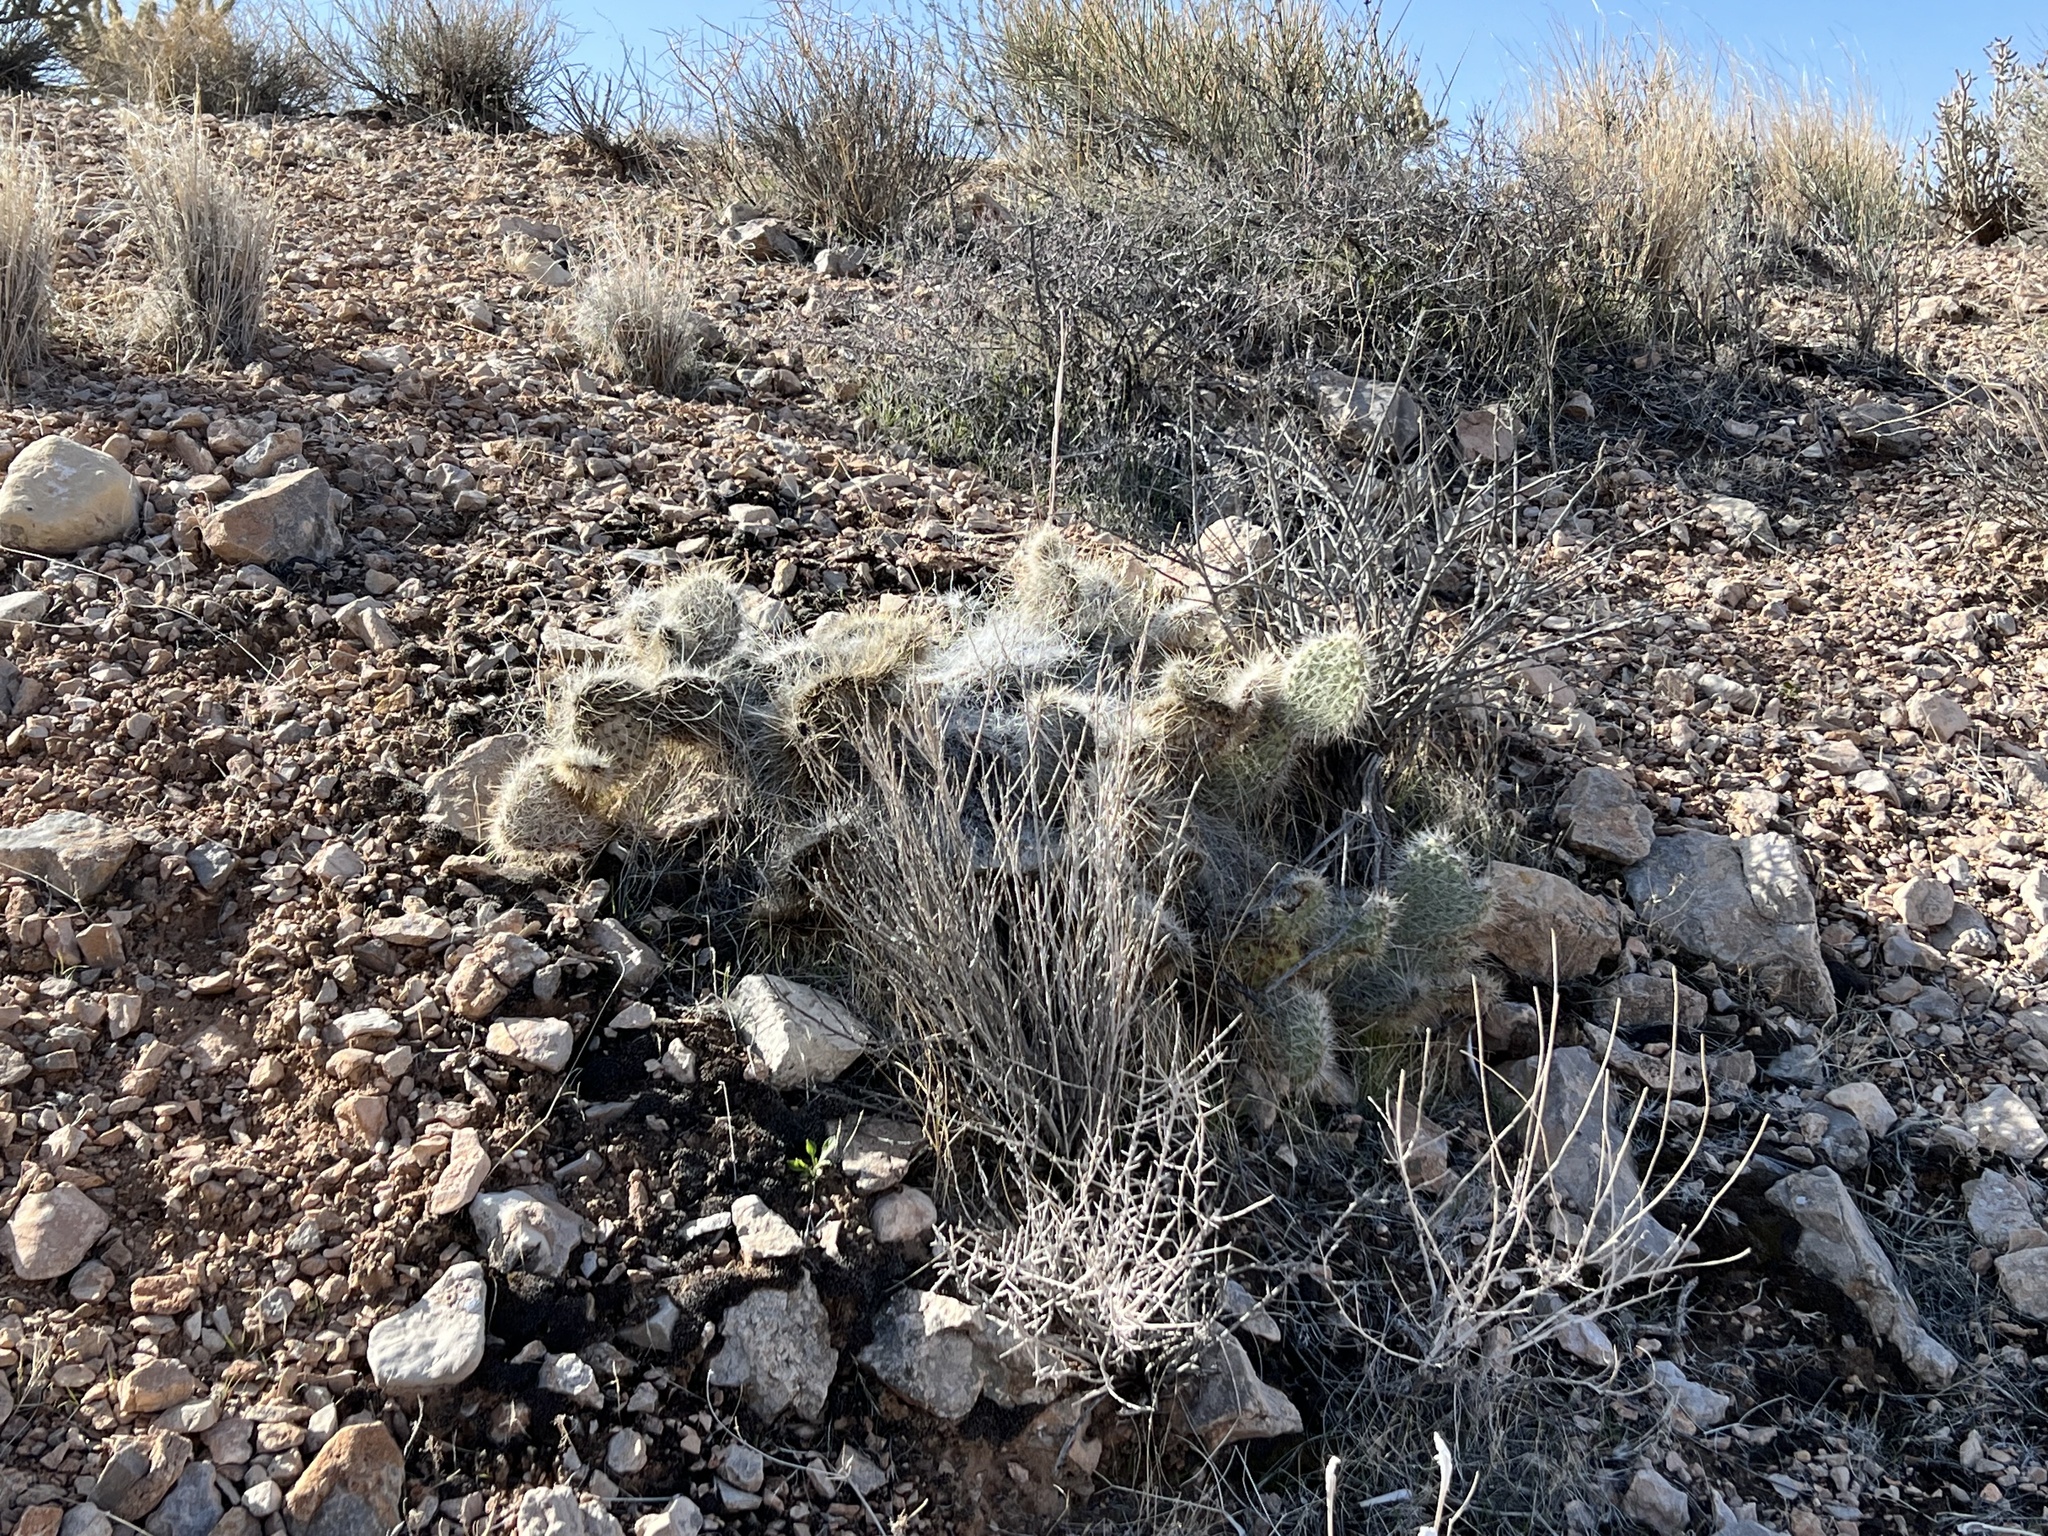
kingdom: Plantae
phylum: Tracheophyta
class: Magnoliopsida
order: Caryophyllales
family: Cactaceae
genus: Opuntia
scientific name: Opuntia polyacantha
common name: Plains prickly-pear
